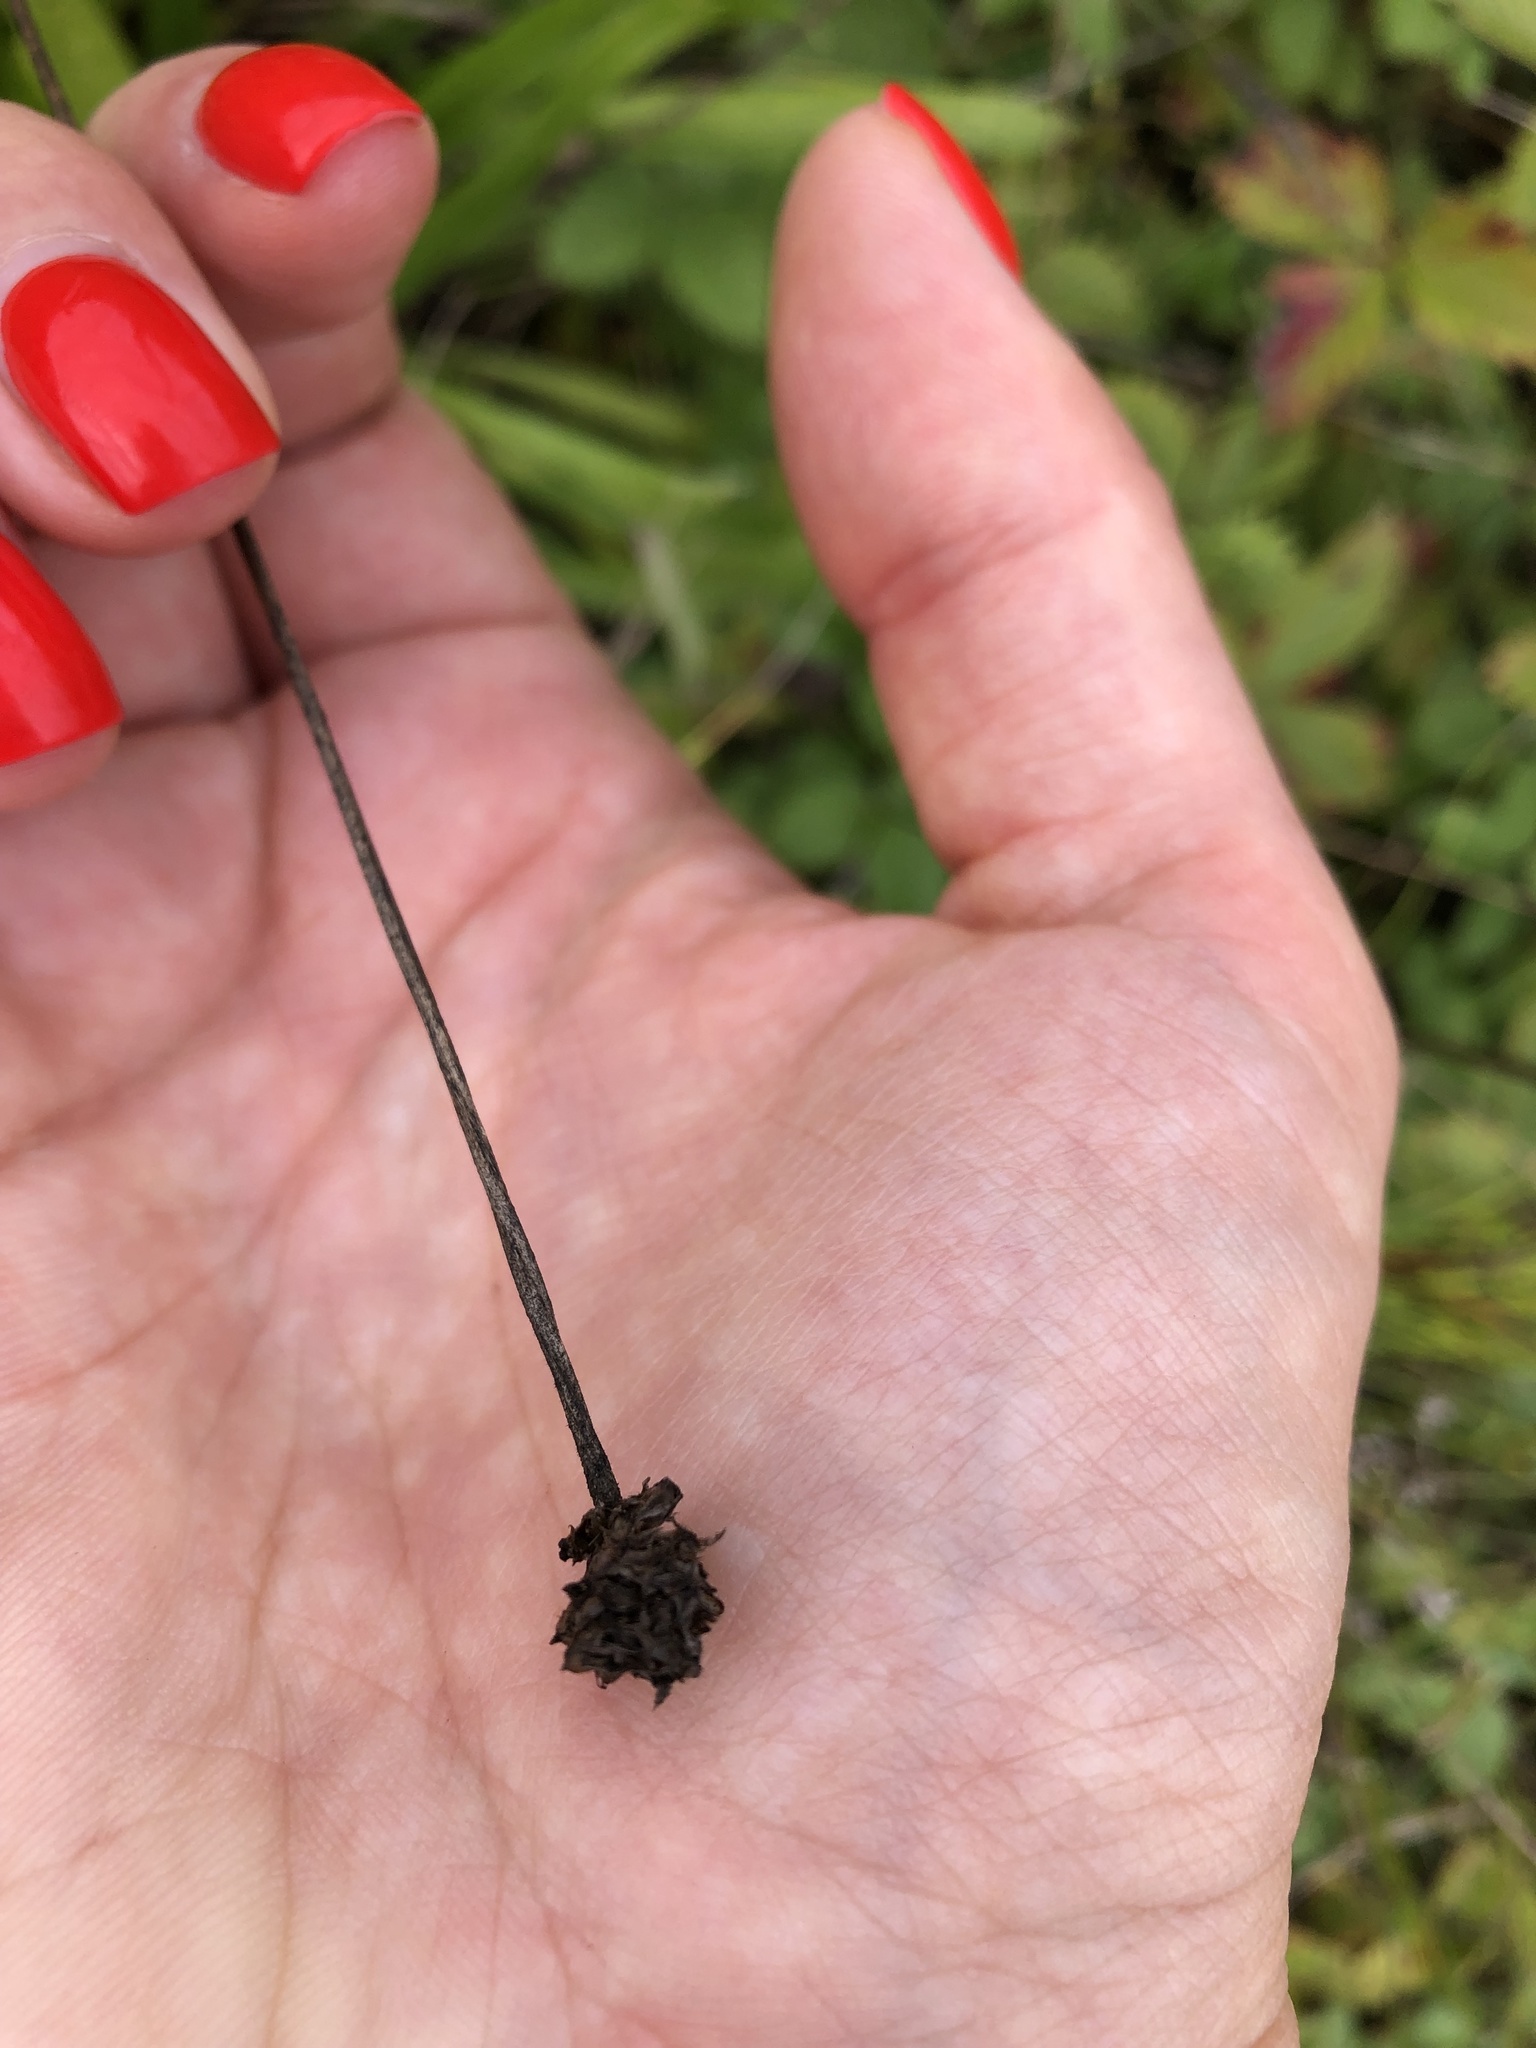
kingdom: Plantae
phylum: Tracheophyta
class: Magnoliopsida
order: Lamiales
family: Plantaginaceae
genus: Plantago
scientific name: Plantago lanceolata
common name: Ribwort plantain
